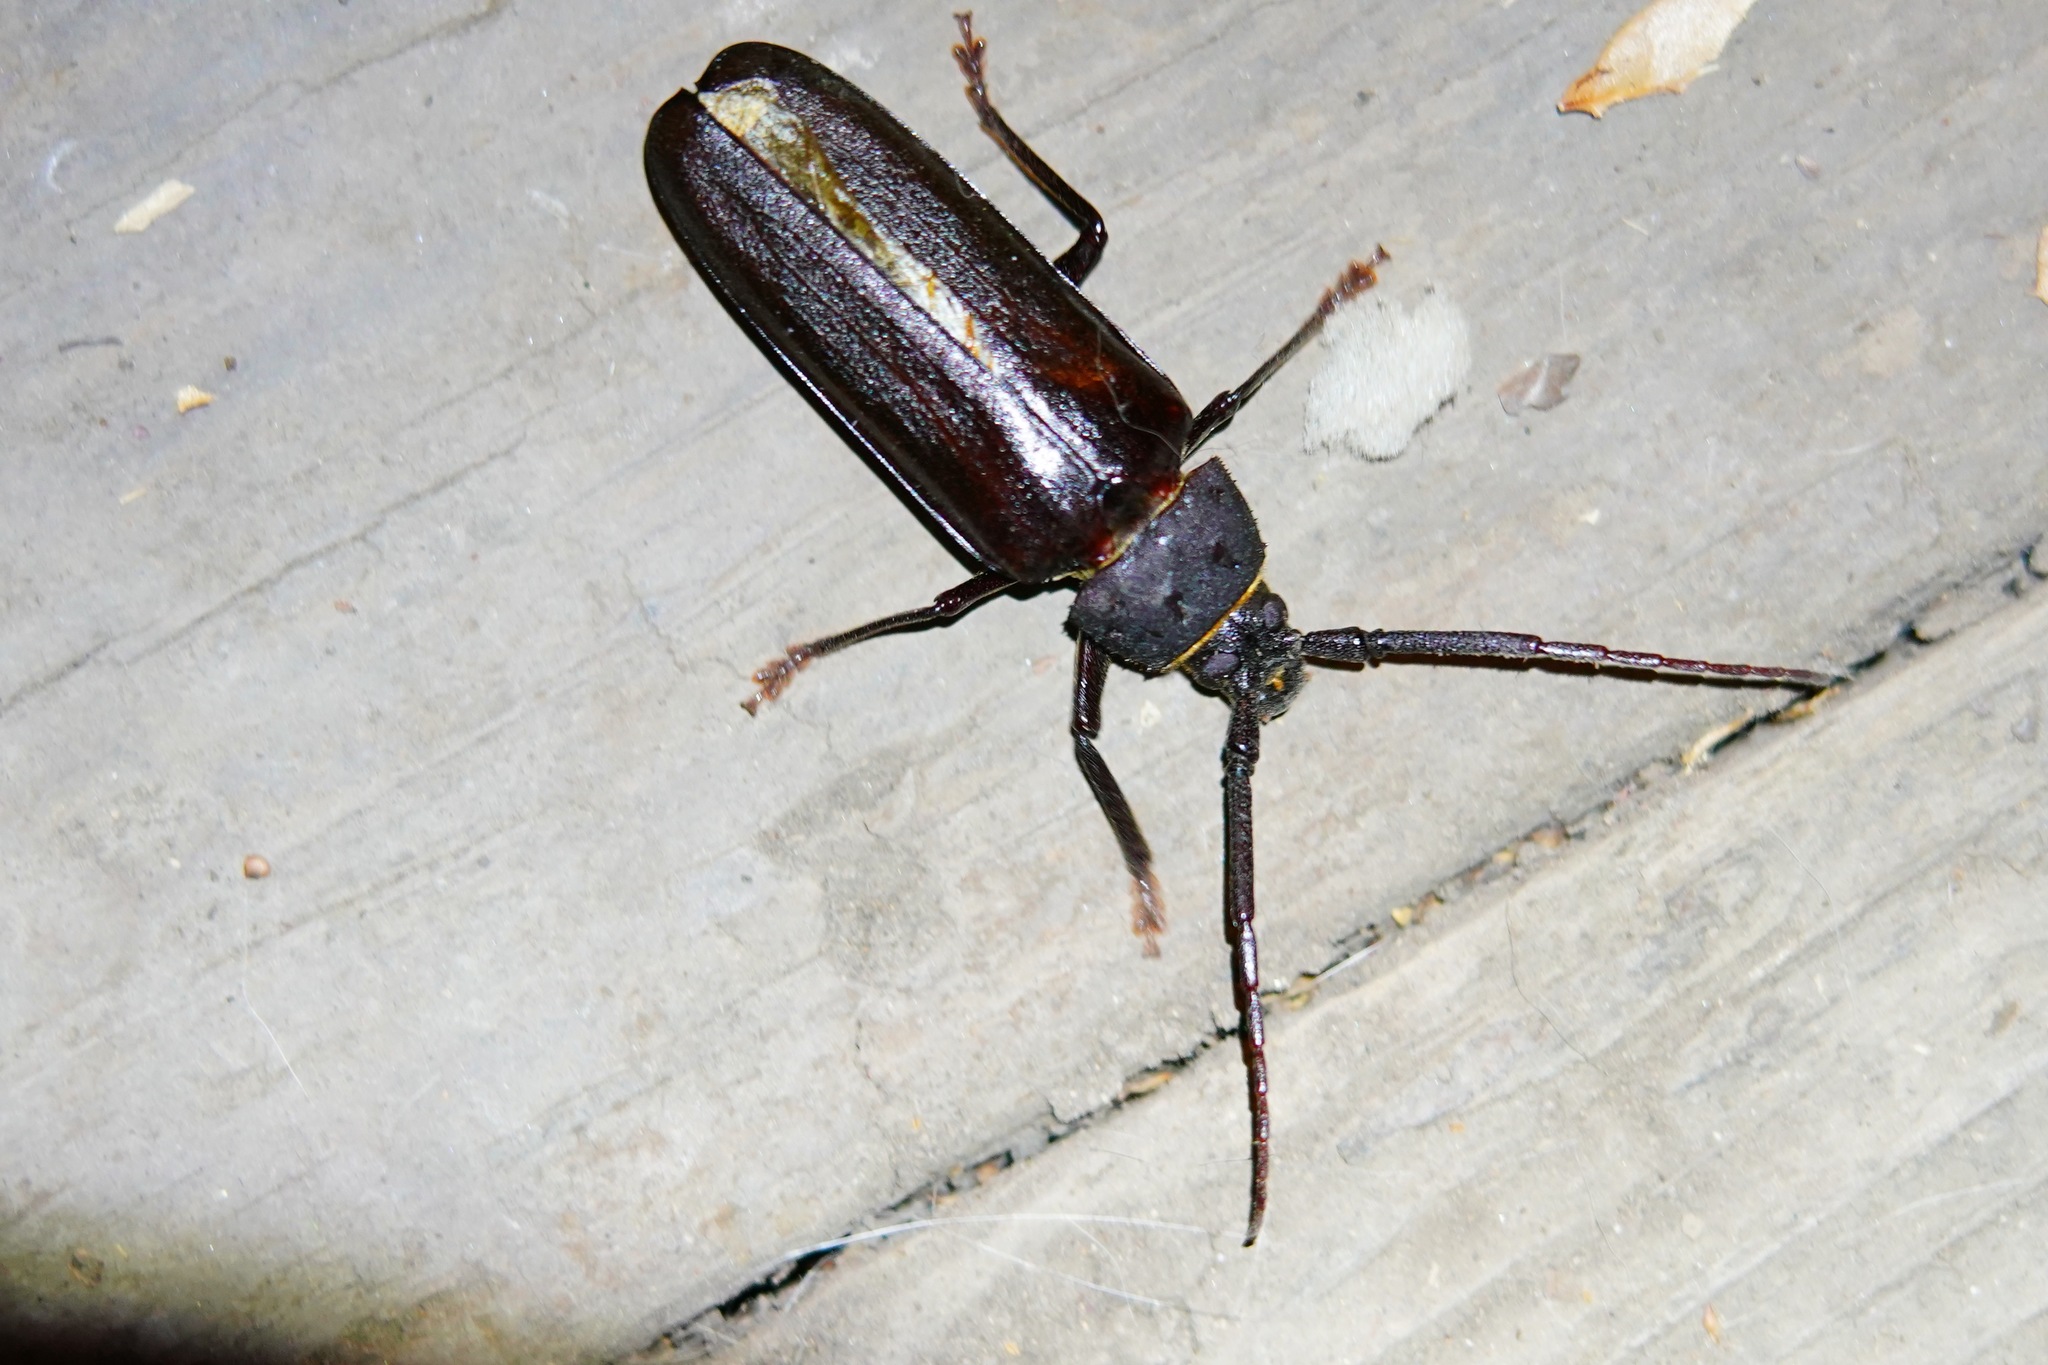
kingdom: Animalia
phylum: Arthropoda
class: Insecta
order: Coleoptera
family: Cerambycidae
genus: Trichocnemis
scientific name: Trichocnemis spiculatus
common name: Long-horned beetle
